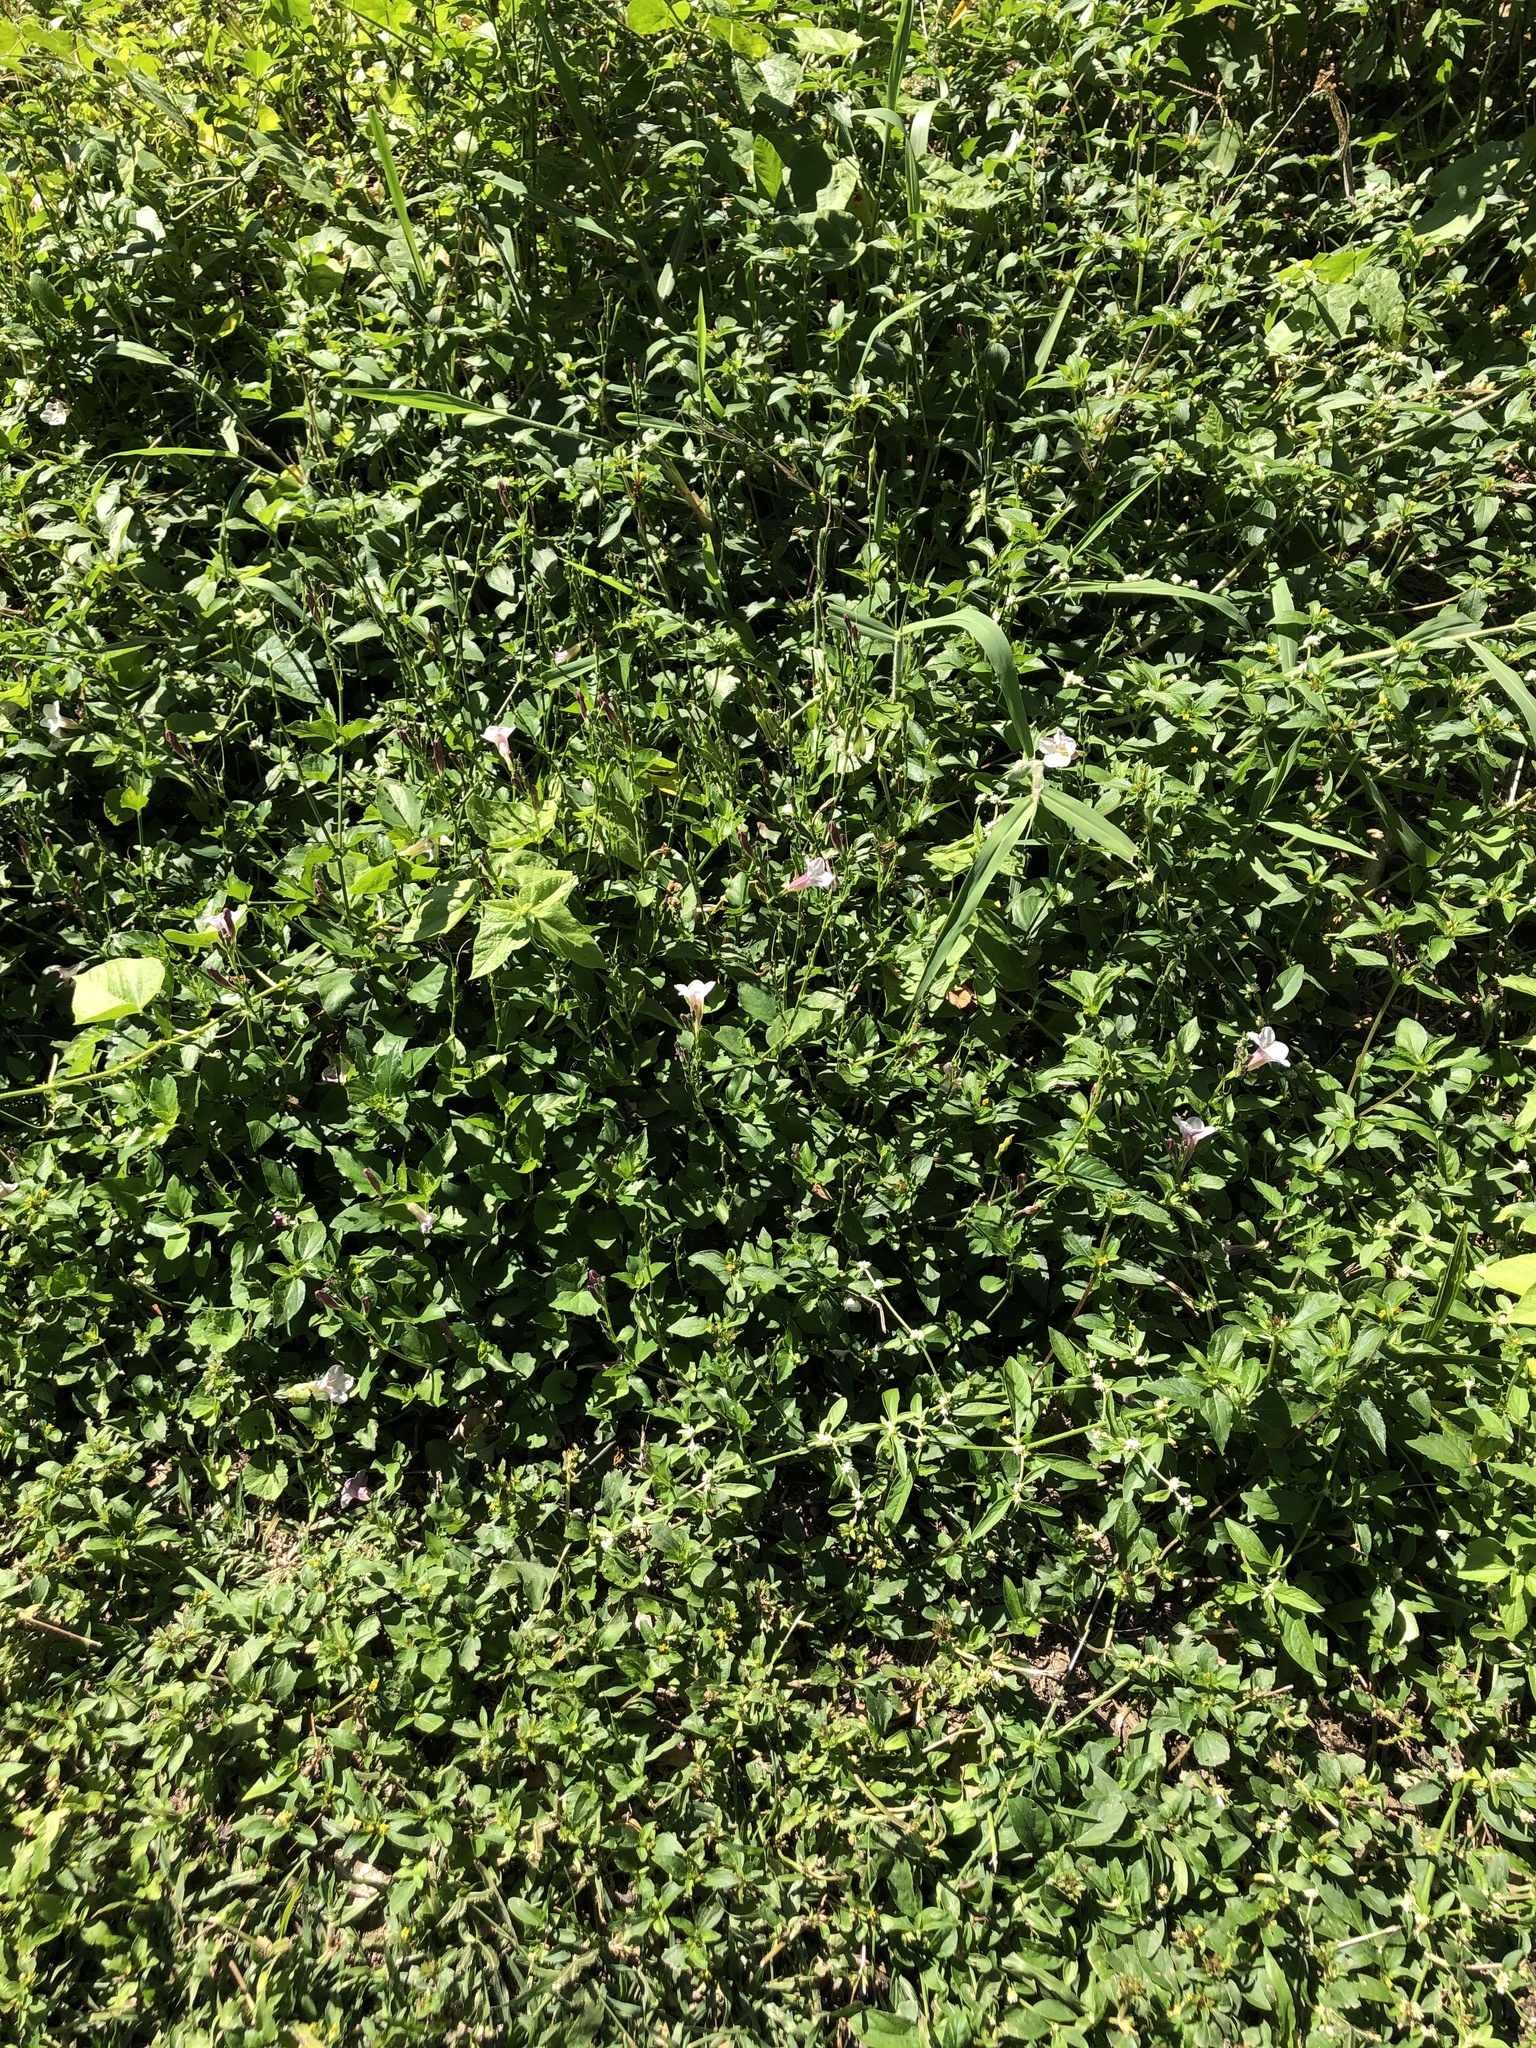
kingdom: Plantae
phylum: Tracheophyta
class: Magnoliopsida
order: Lamiales
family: Acanthaceae
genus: Asystasia
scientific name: Asystasia gangetica
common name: Chinese violet
